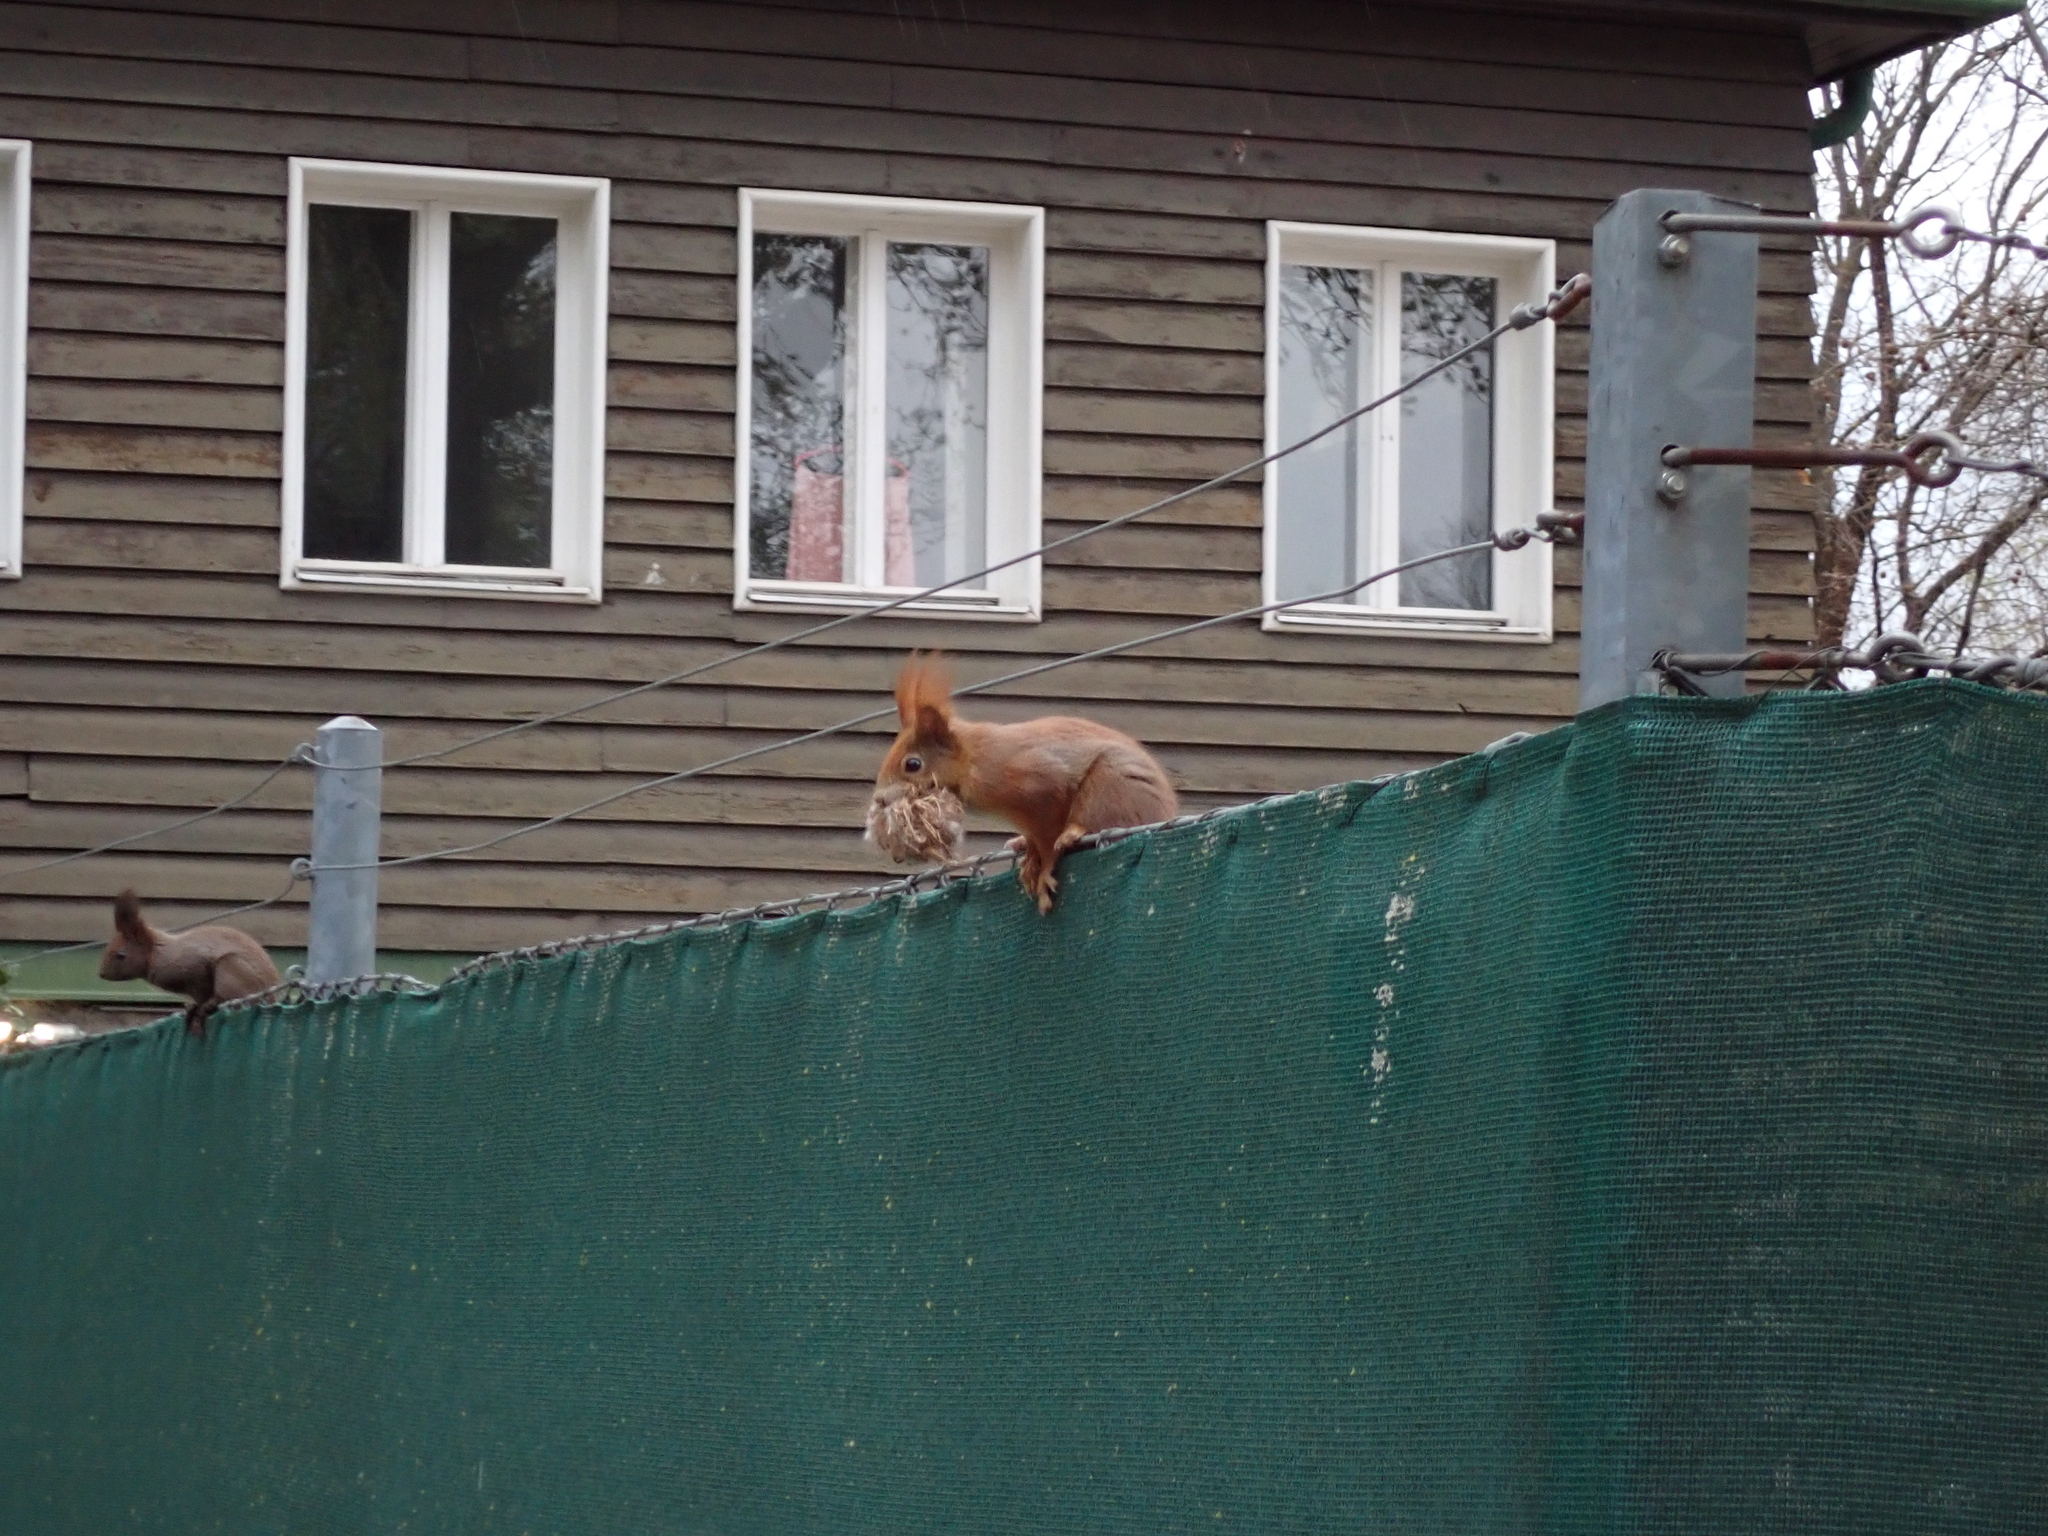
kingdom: Animalia
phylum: Chordata
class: Mammalia
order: Rodentia
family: Sciuridae
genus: Sciurus
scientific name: Sciurus vulgaris
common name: Eurasian red squirrel
